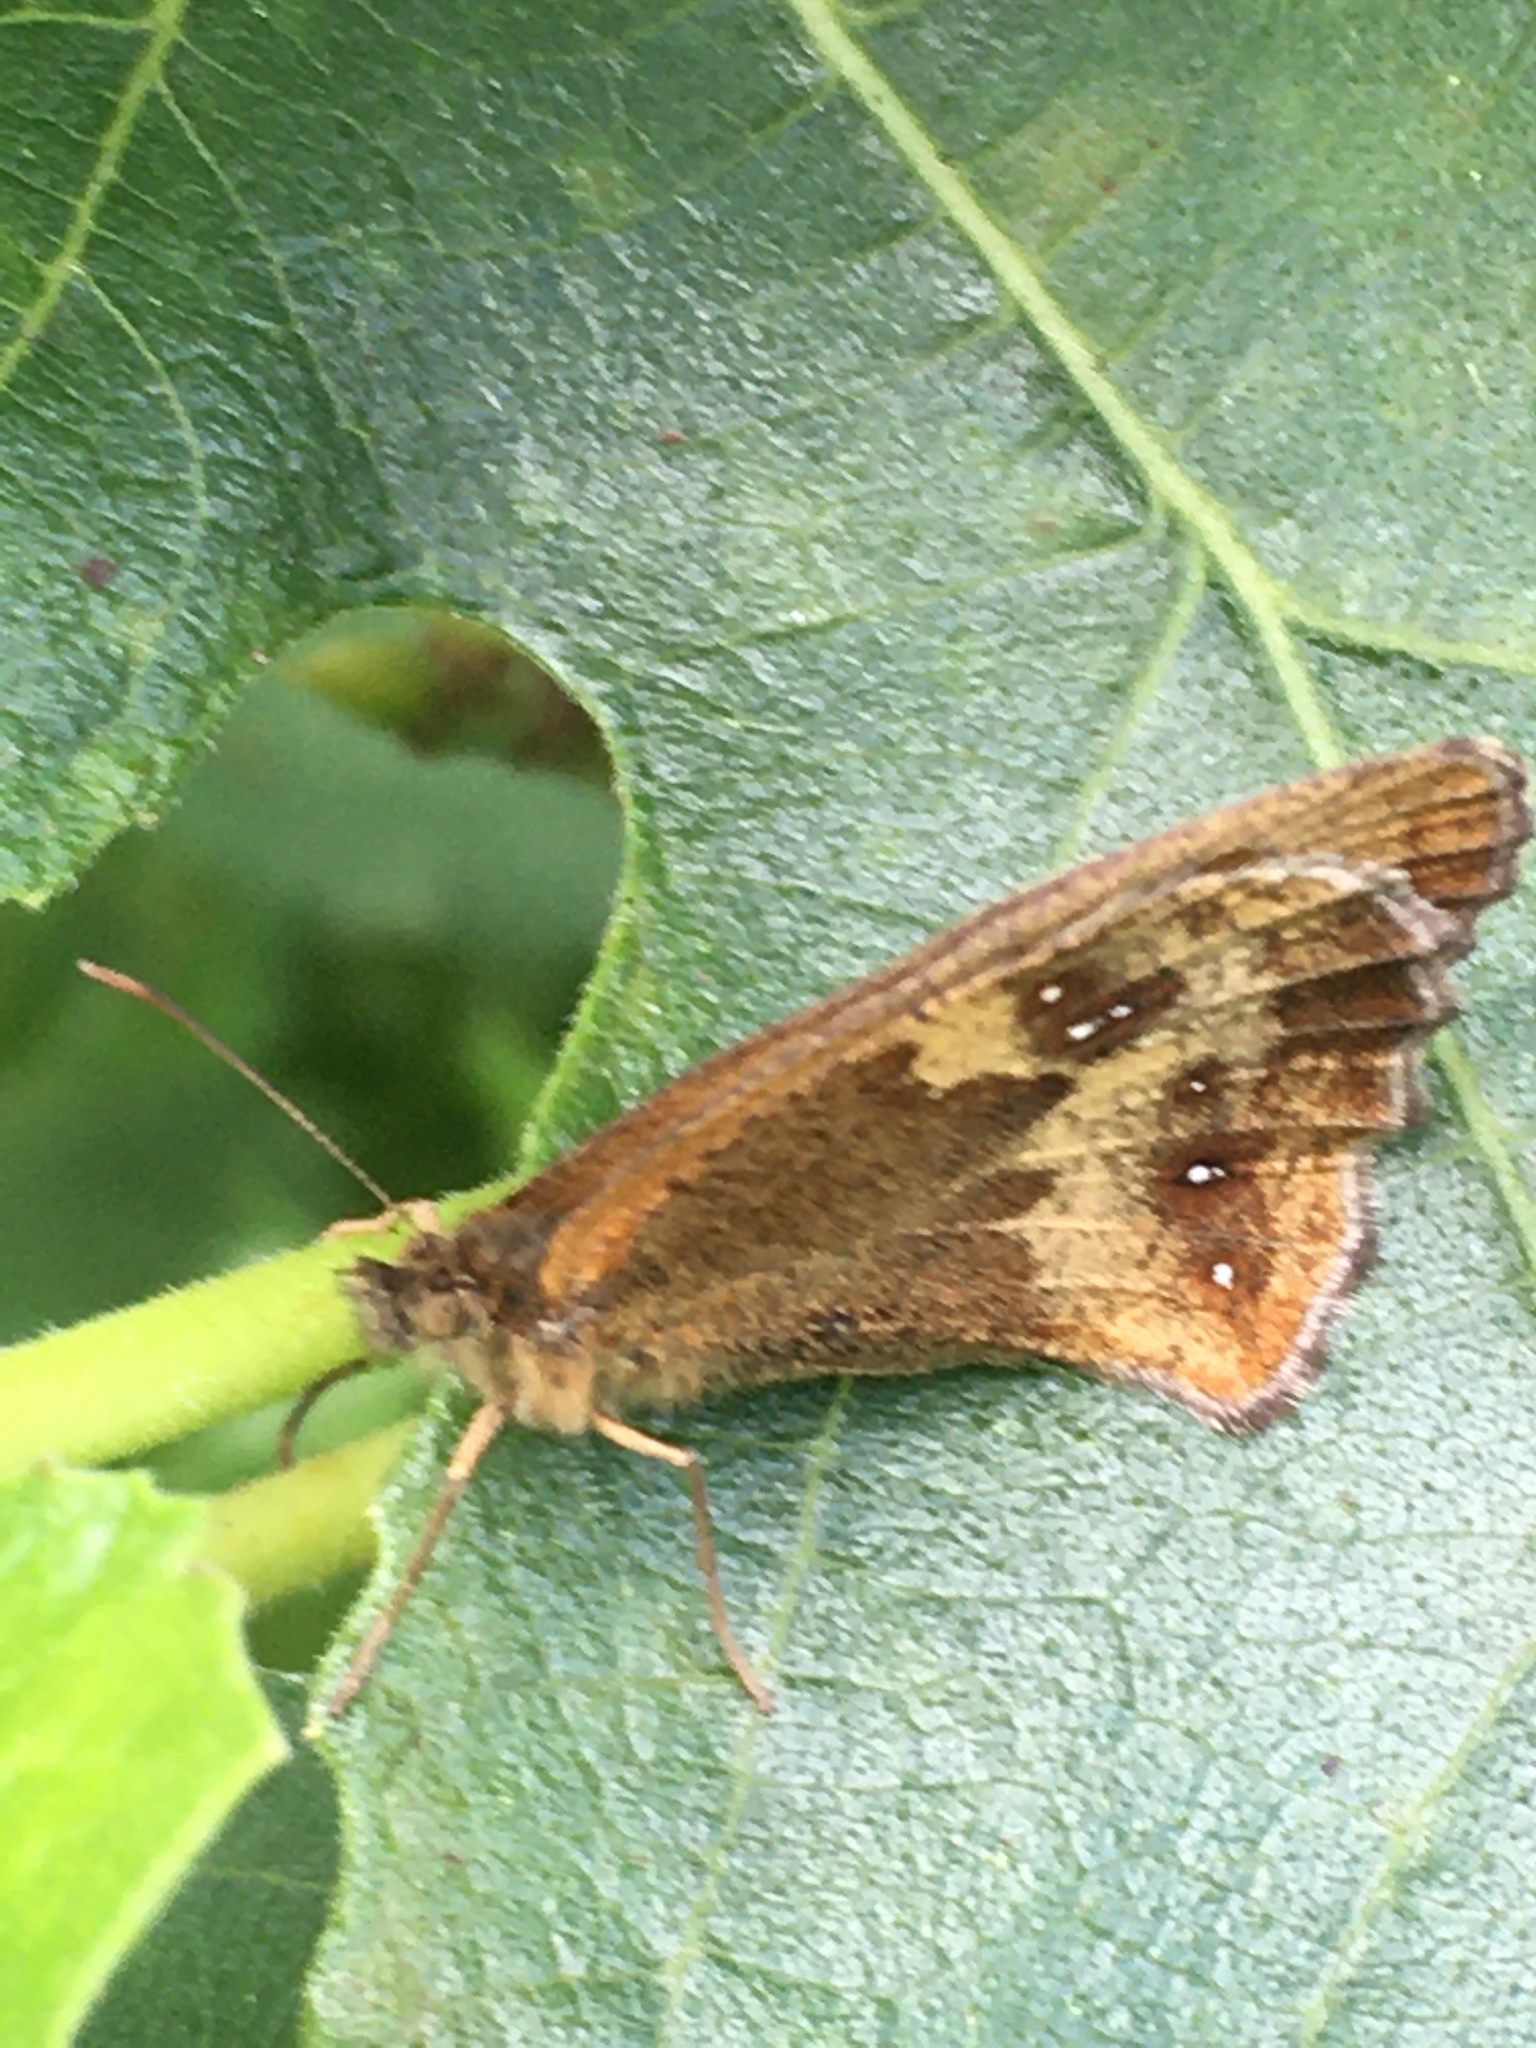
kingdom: Animalia
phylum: Arthropoda
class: Insecta
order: Lepidoptera
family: Nymphalidae
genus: Pyronia
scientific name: Pyronia tithonus
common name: Gatekeeper
